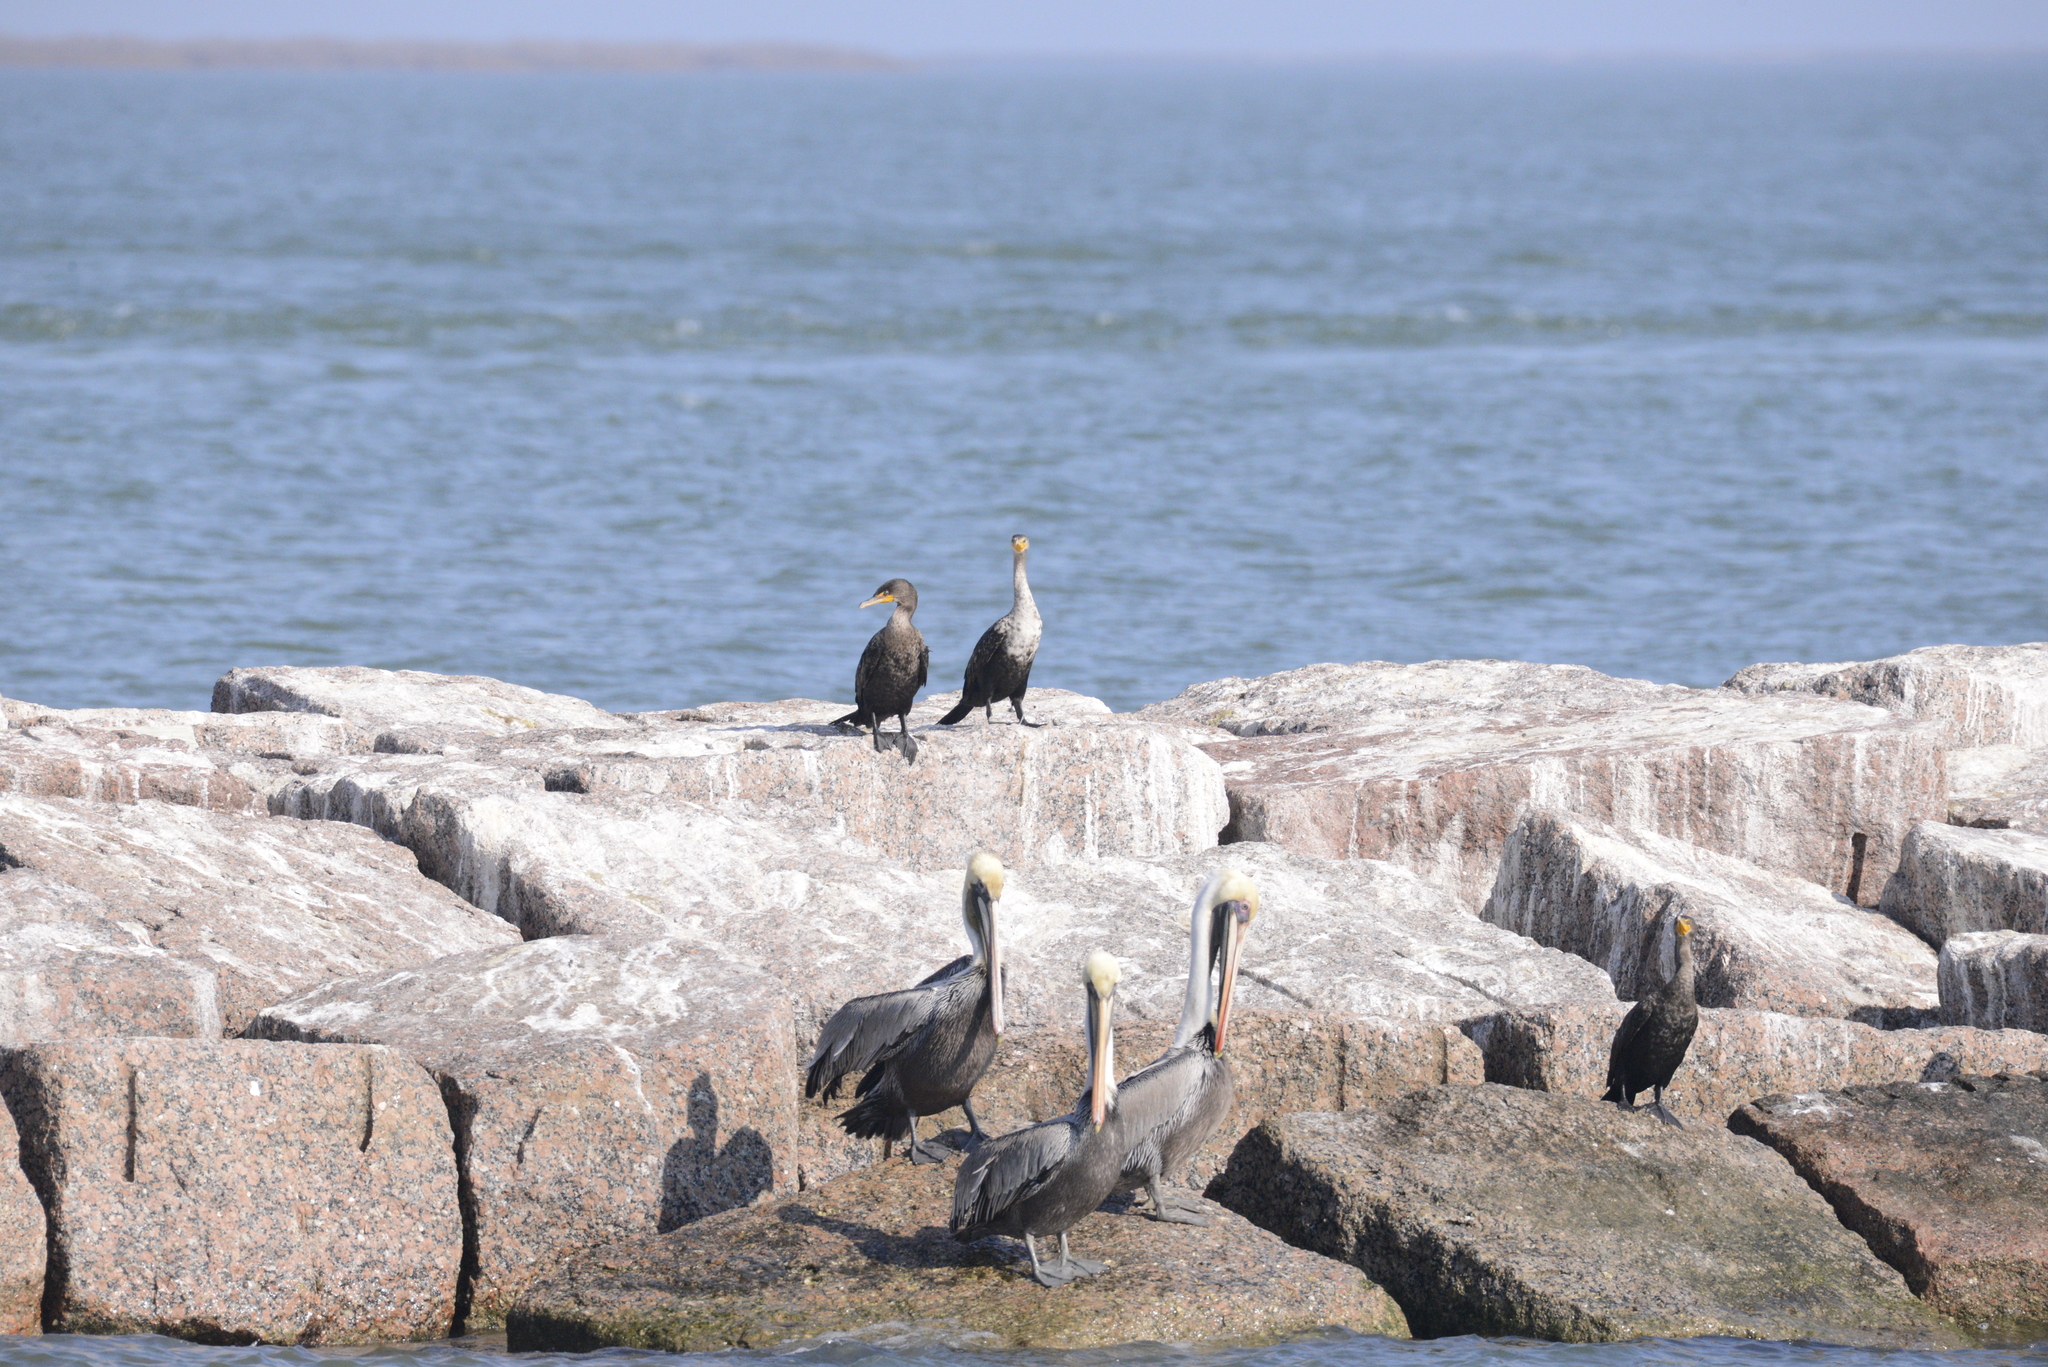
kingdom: Animalia
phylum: Chordata
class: Aves
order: Suliformes
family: Phalacrocoracidae
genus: Phalacrocorax
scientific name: Phalacrocorax auritus
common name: Double-crested cormorant
